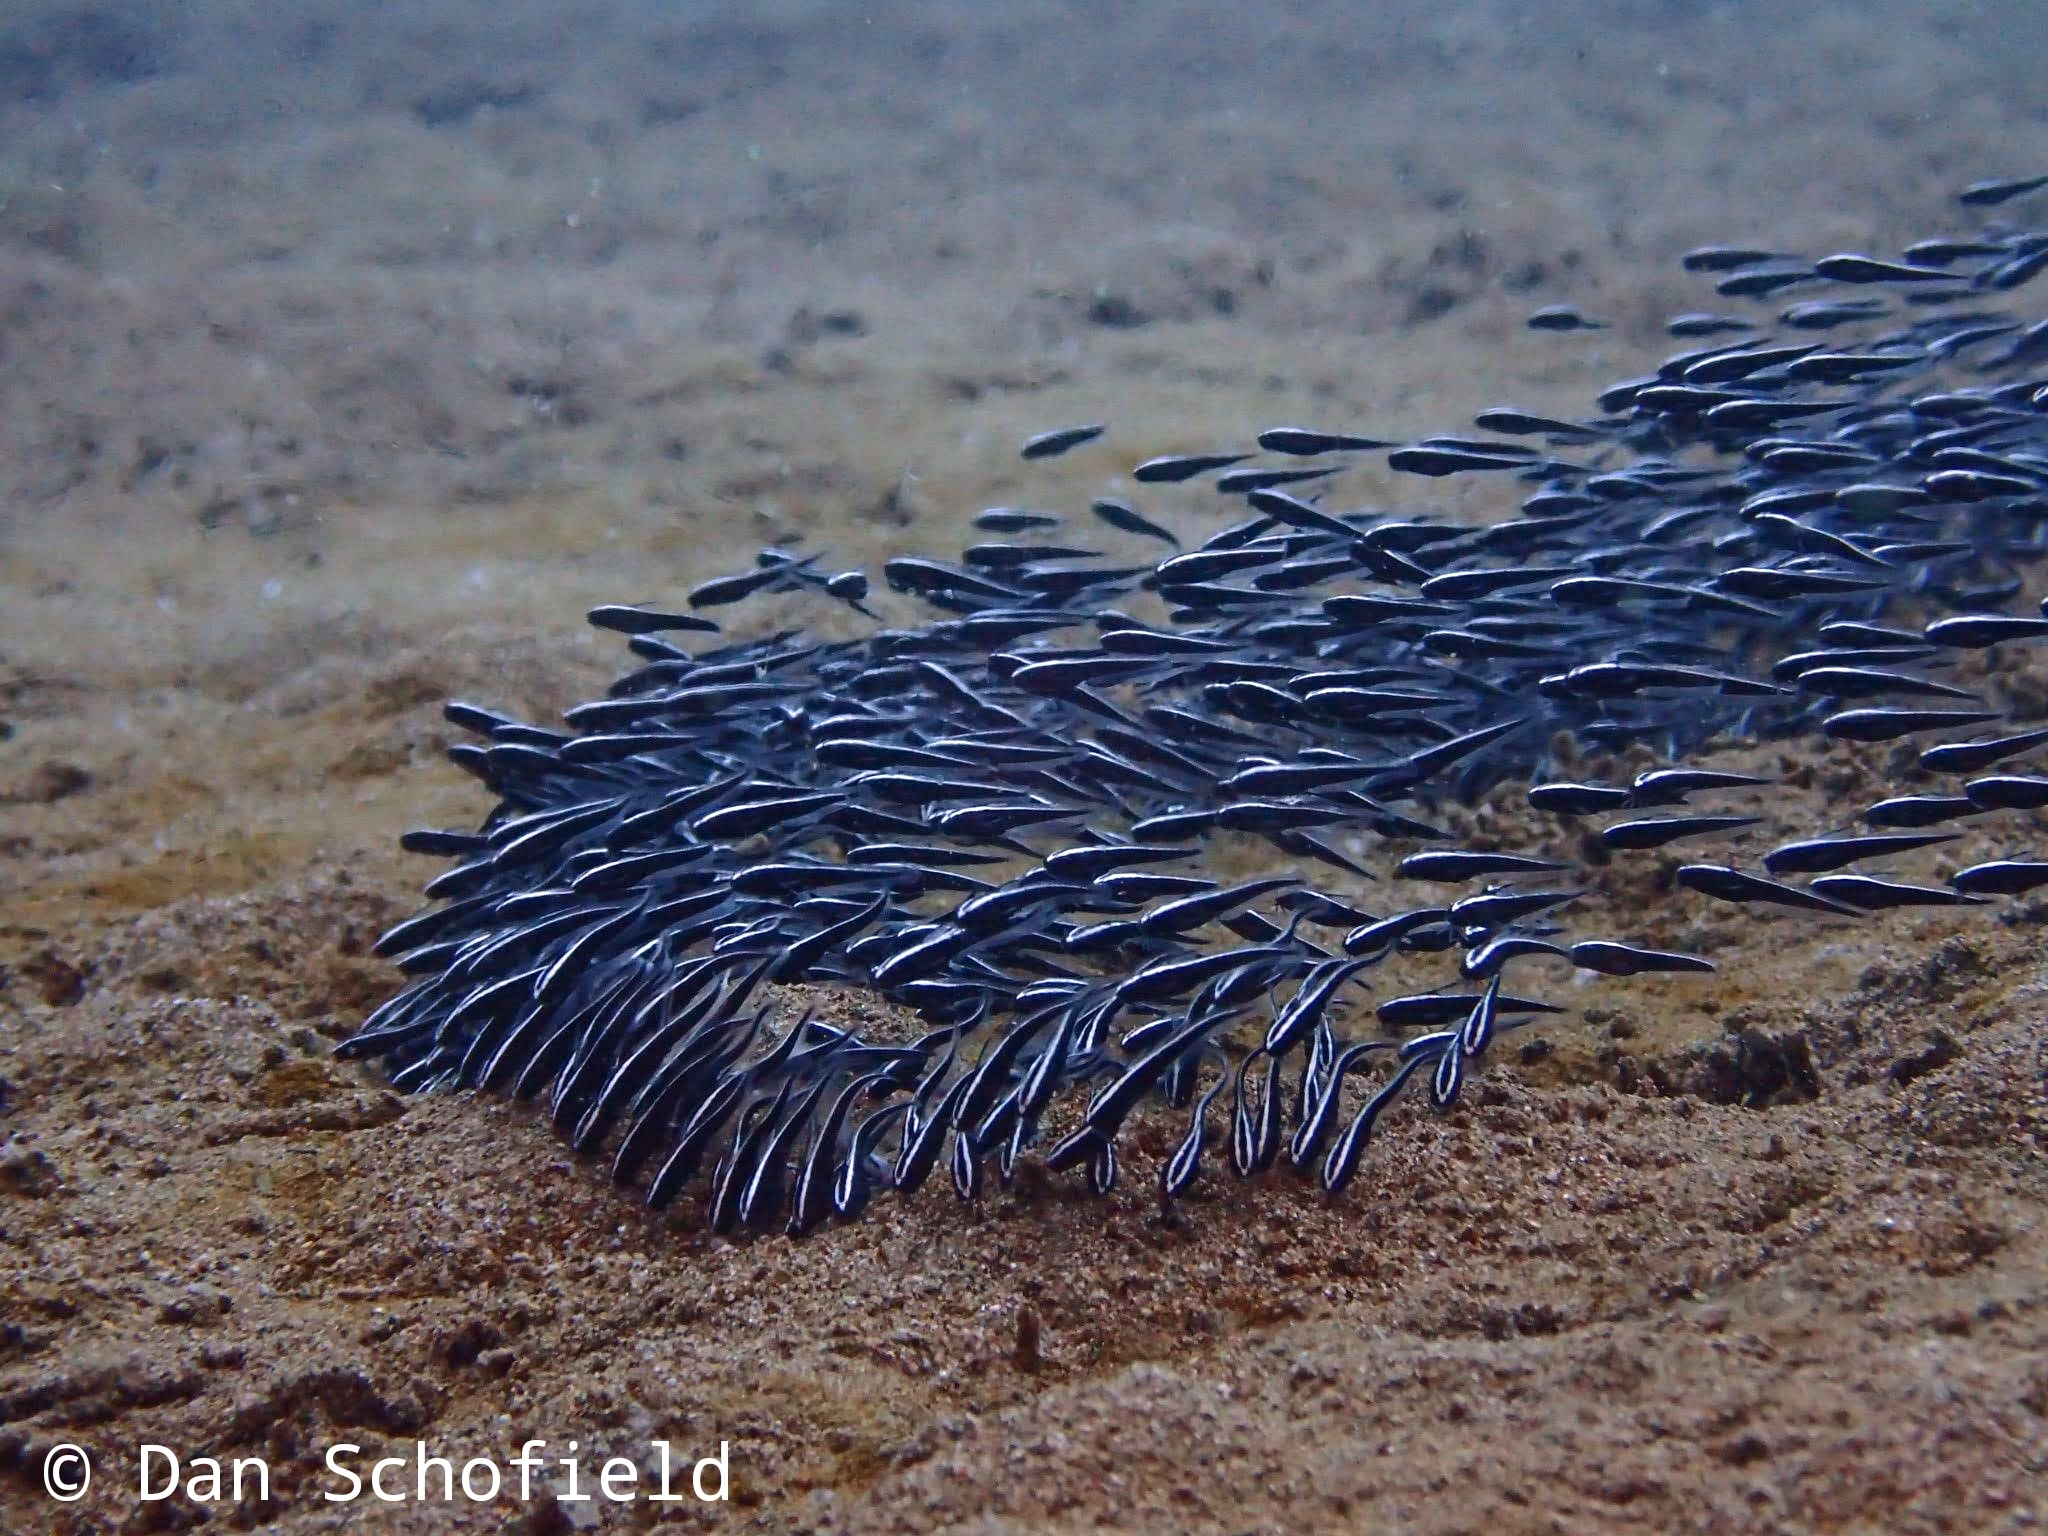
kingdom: Animalia
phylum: Chordata
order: Siluriformes
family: Plotosidae
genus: Plotosus
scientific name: Plotosus lineatus
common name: Striped eel catfish
